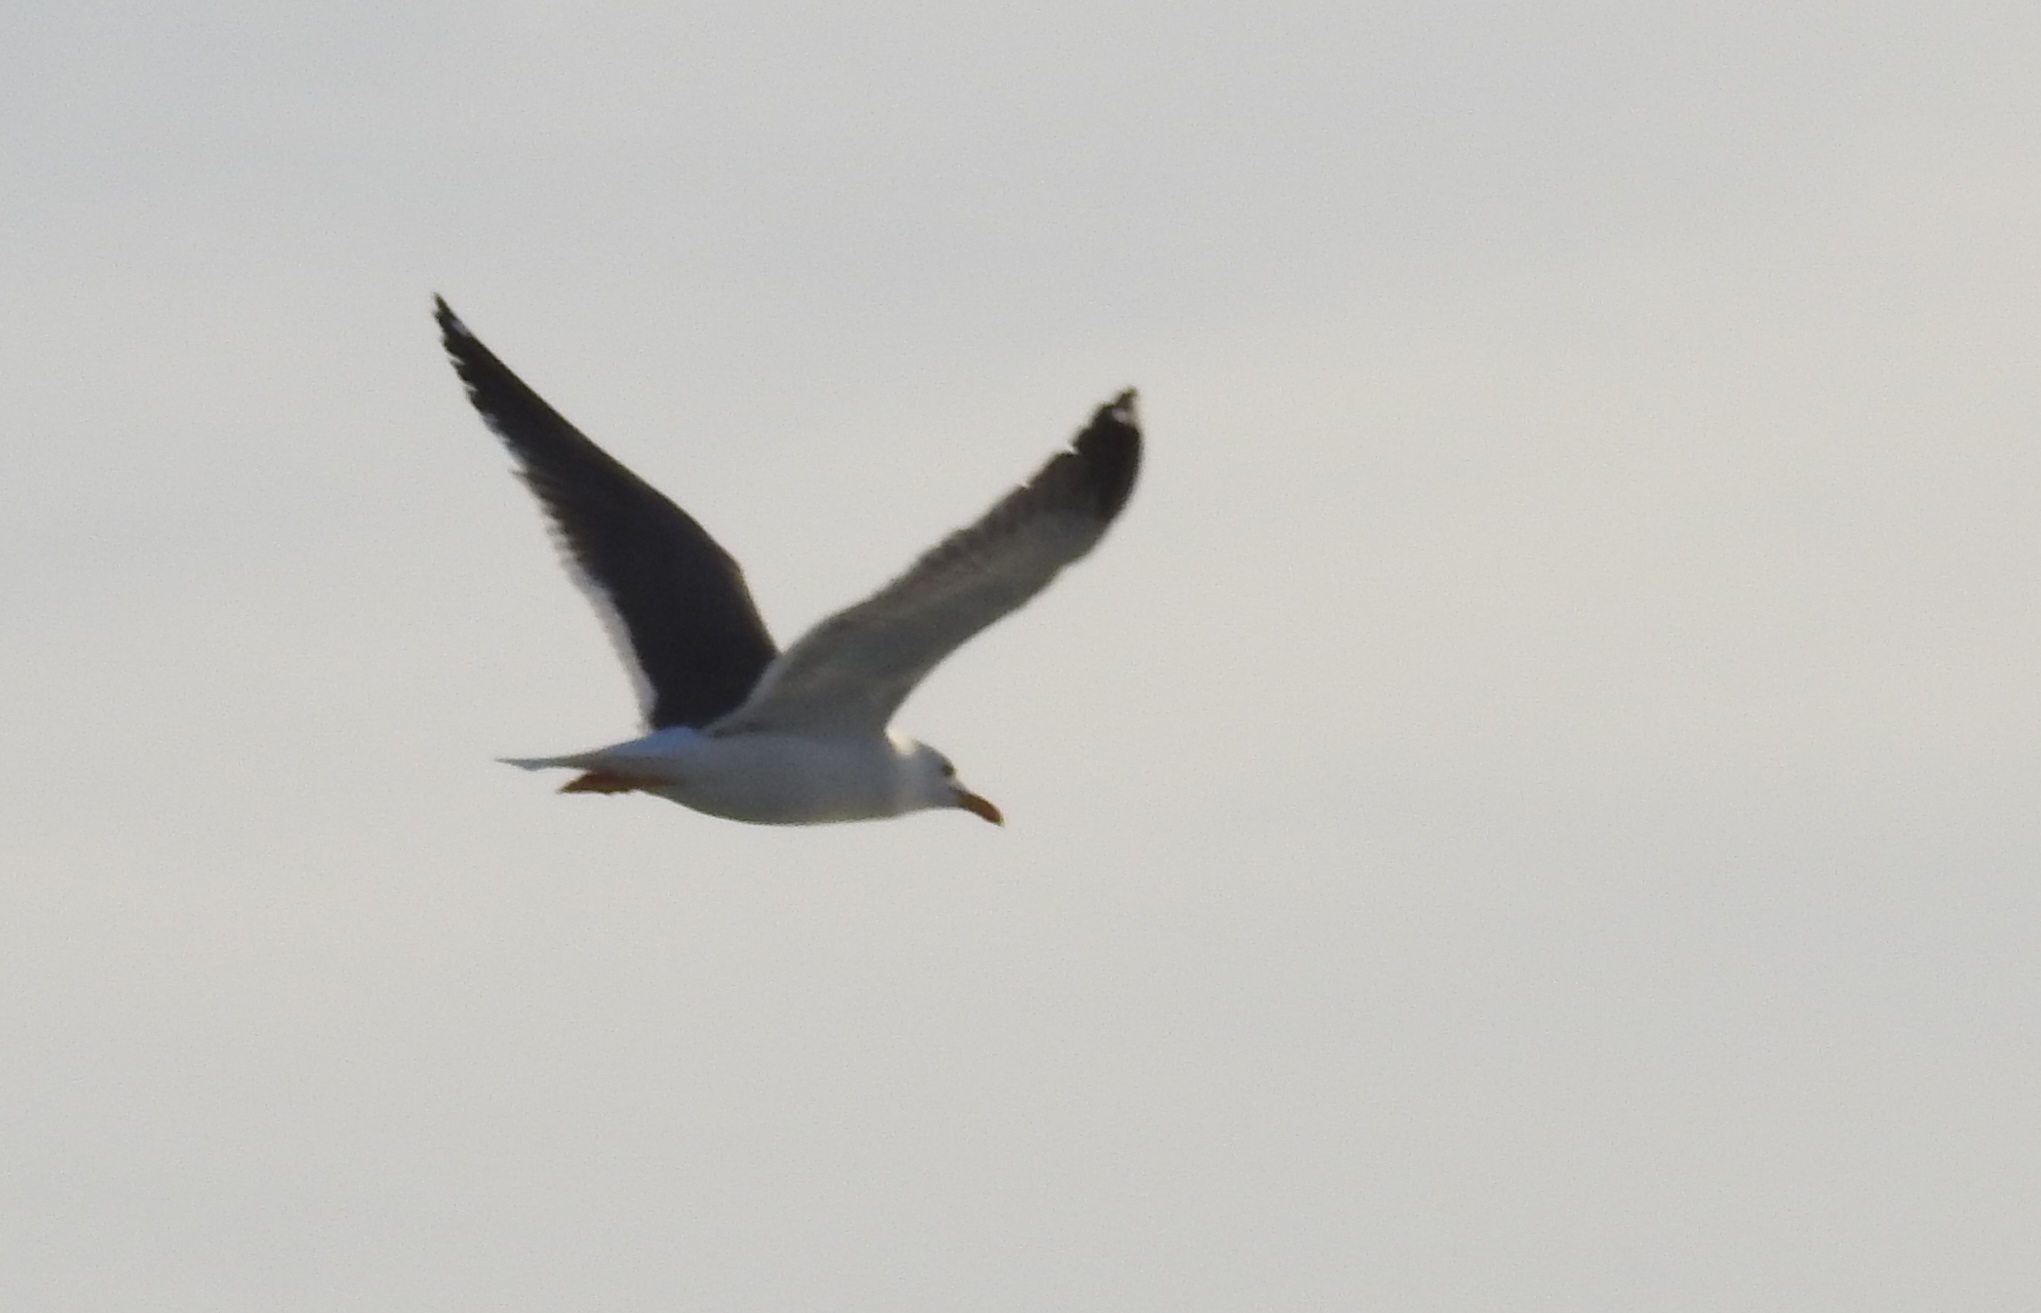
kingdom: Animalia
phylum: Chordata
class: Aves
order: Charadriiformes
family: Laridae
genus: Larus
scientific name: Larus fuscus
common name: Lesser black-backed gull
